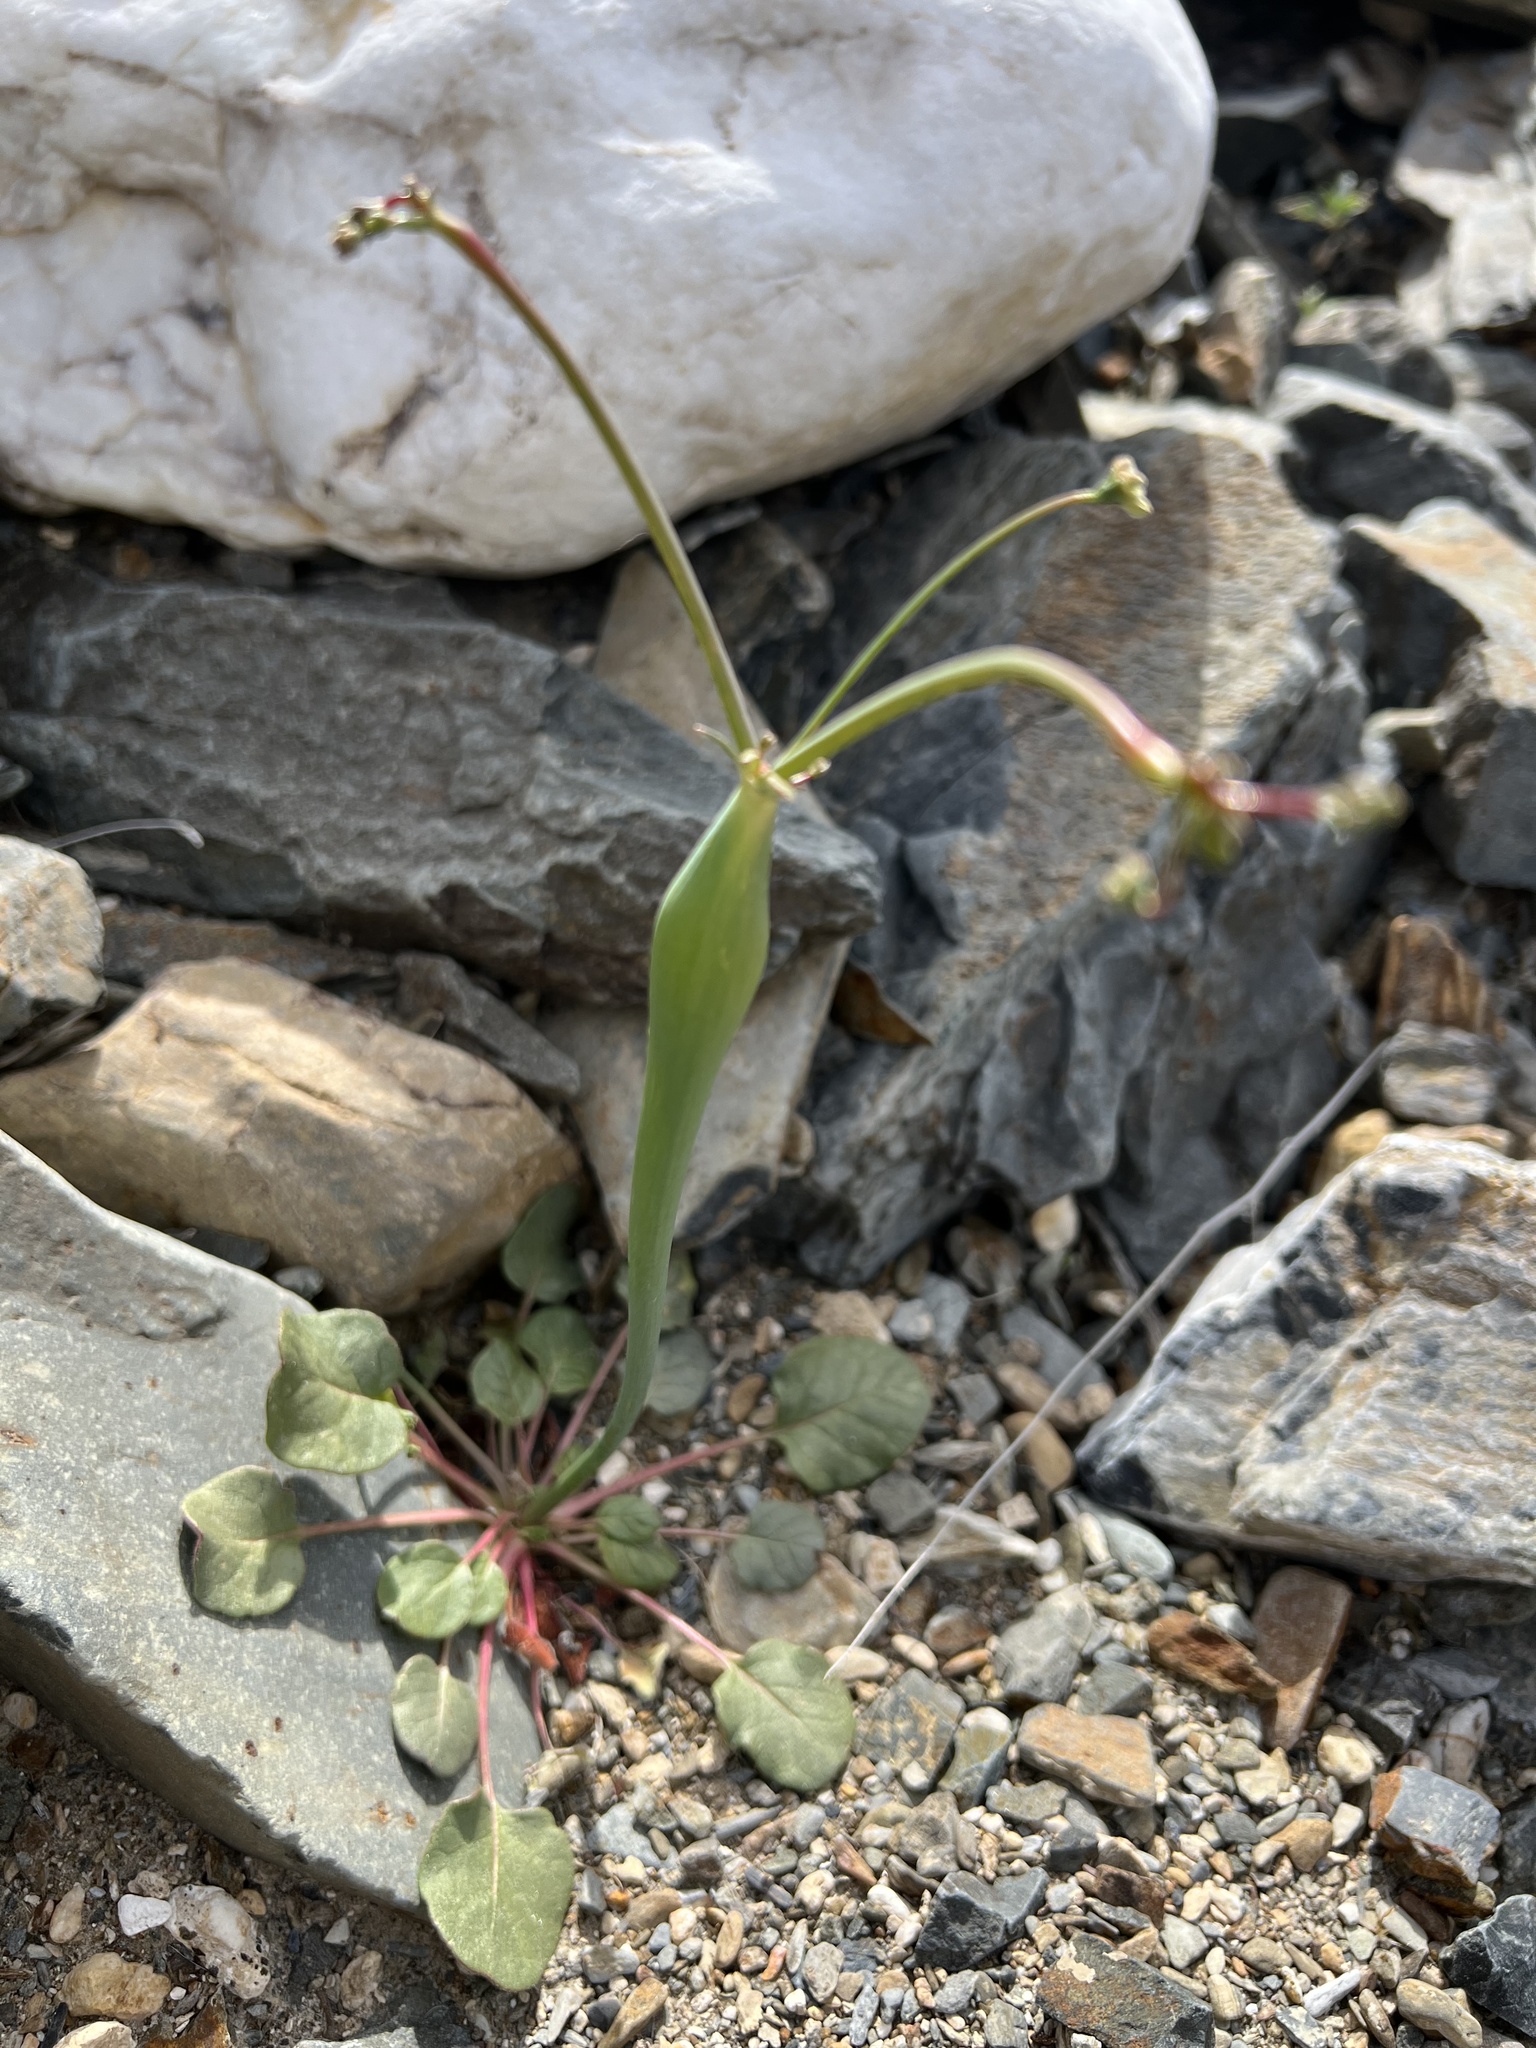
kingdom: Plantae
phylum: Tracheophyta
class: Magnoliopsida
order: Caryophyllales
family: Polygonaceae
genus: Eriogonum
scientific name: Eriogonum inflatum
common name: Desert trumpet
